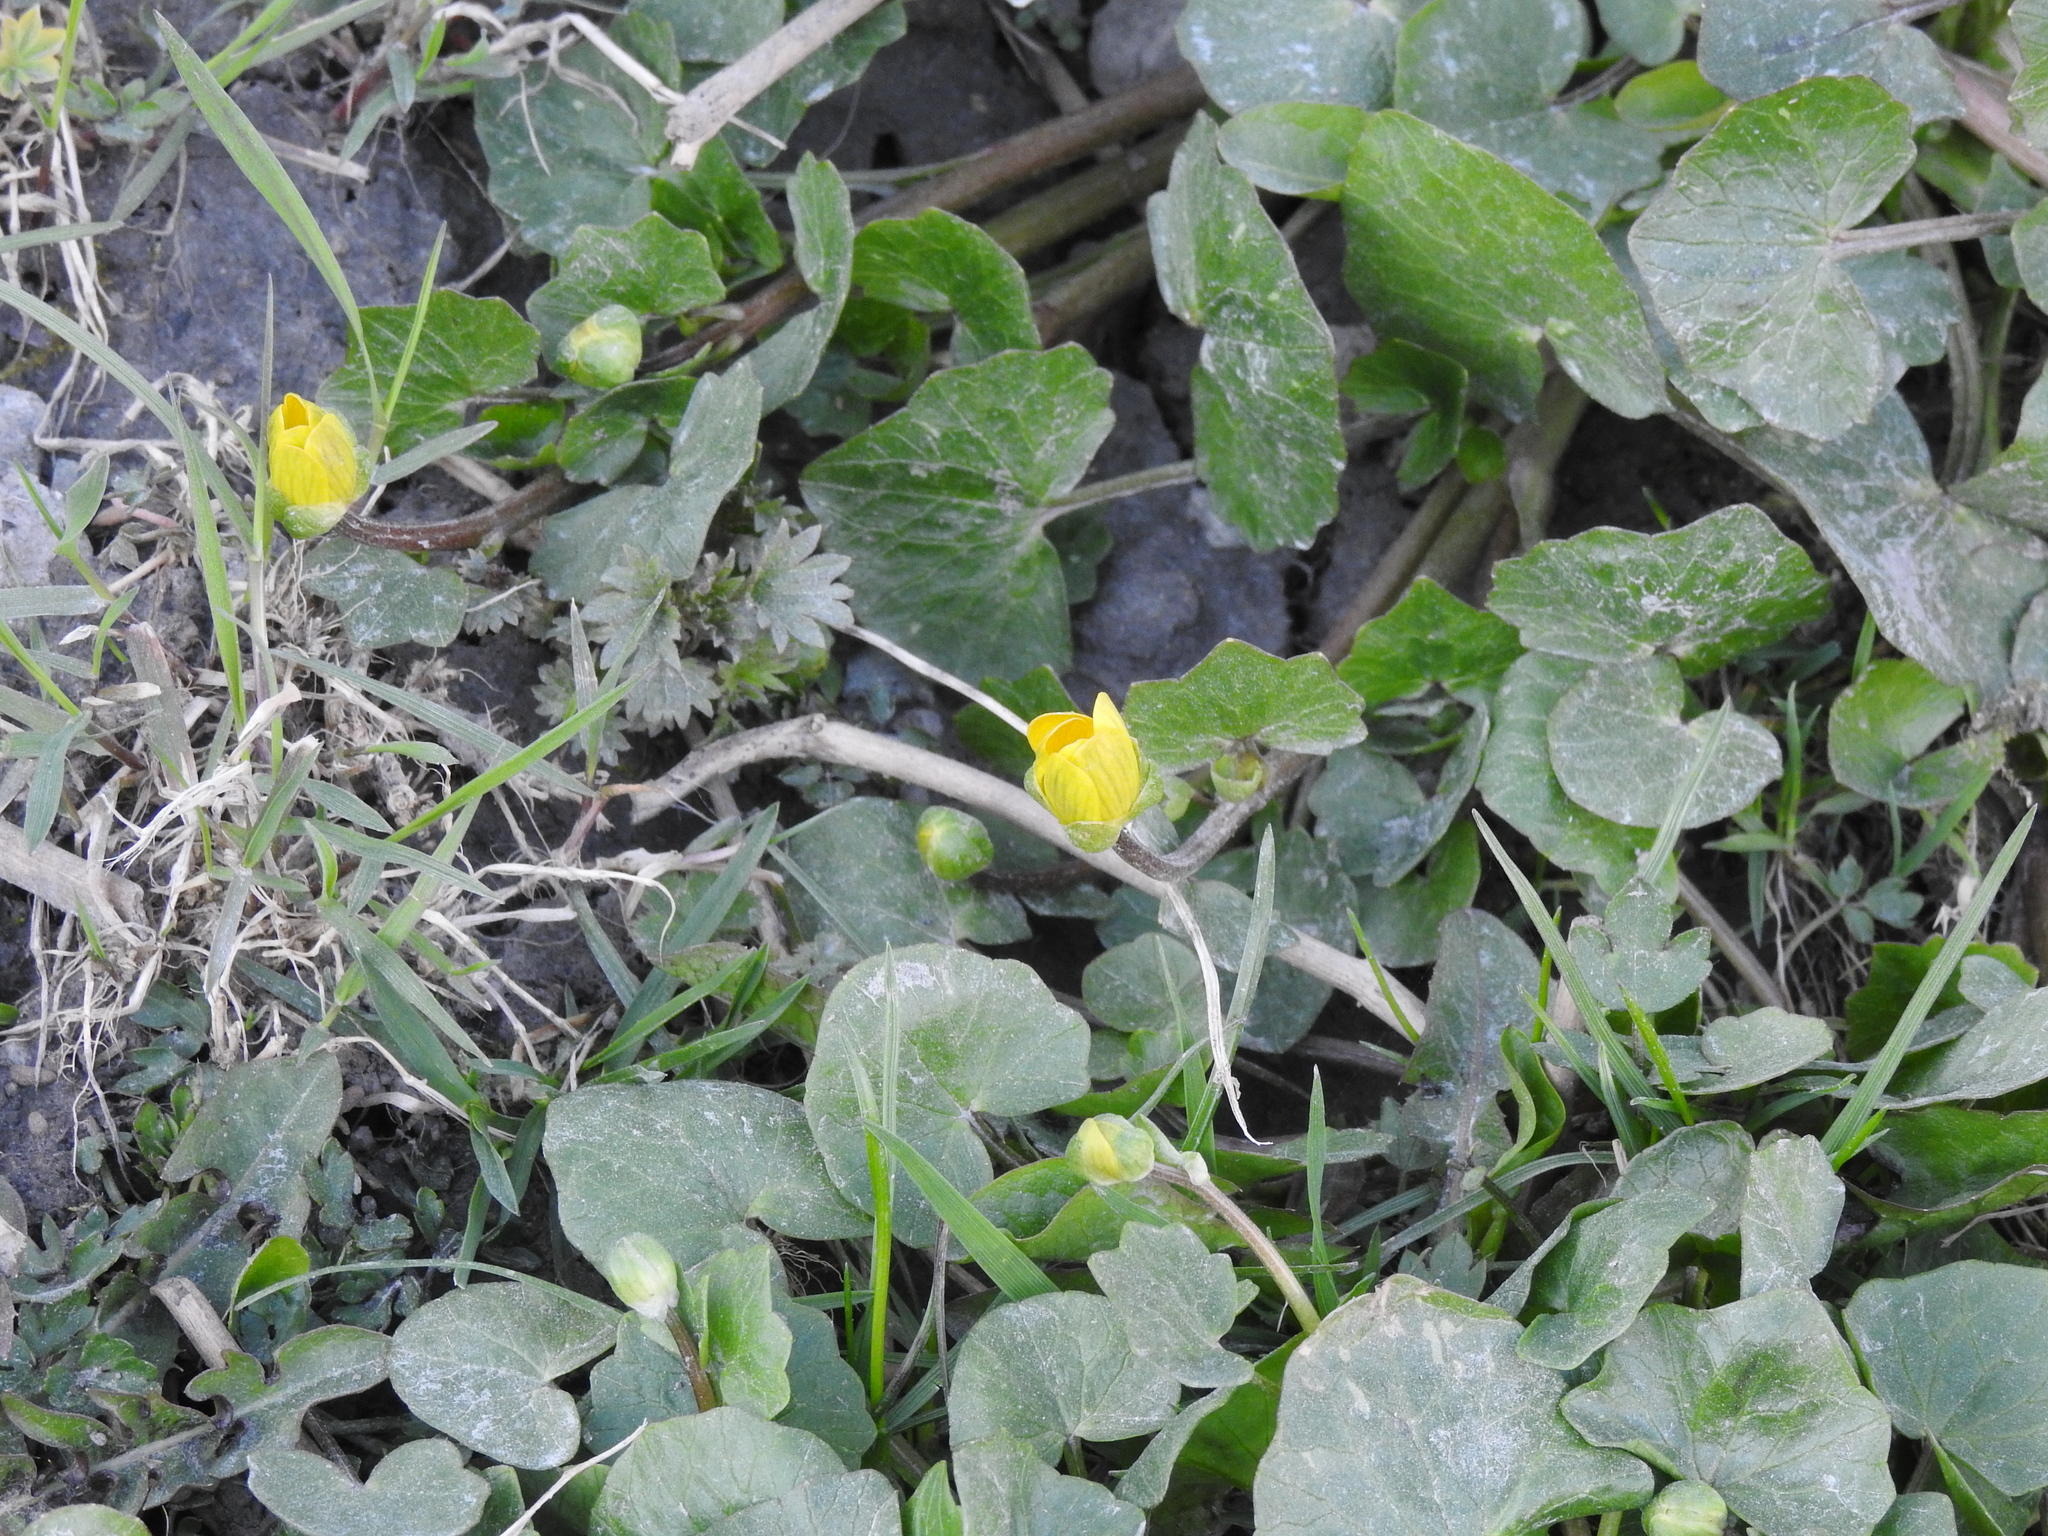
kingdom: Plantae
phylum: Tracheophyta
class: Magnoliopsida
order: Ranunculales
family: Ranunculaceae
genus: Ficaria
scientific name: Ficaria verna
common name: Lesser celandine
